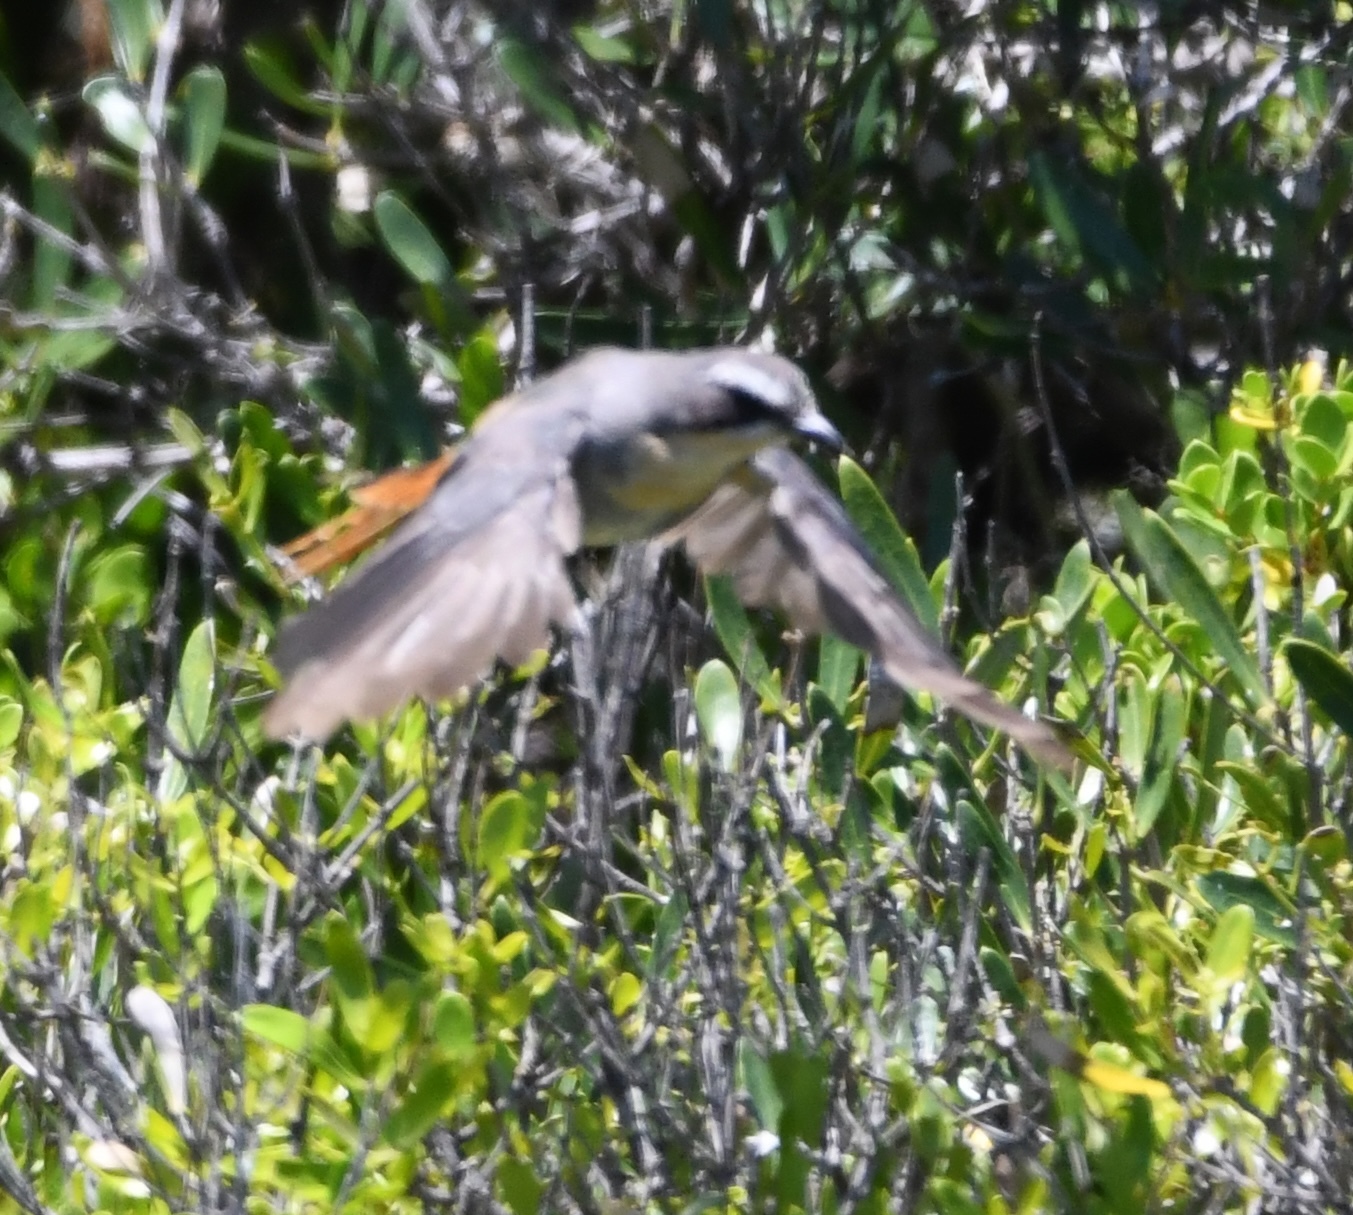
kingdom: Animalia
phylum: Chordata
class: Aves
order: Passeriformes
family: Muscicapidae
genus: Cossypha
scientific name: Cossypha caffra
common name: Cape robin-chat
